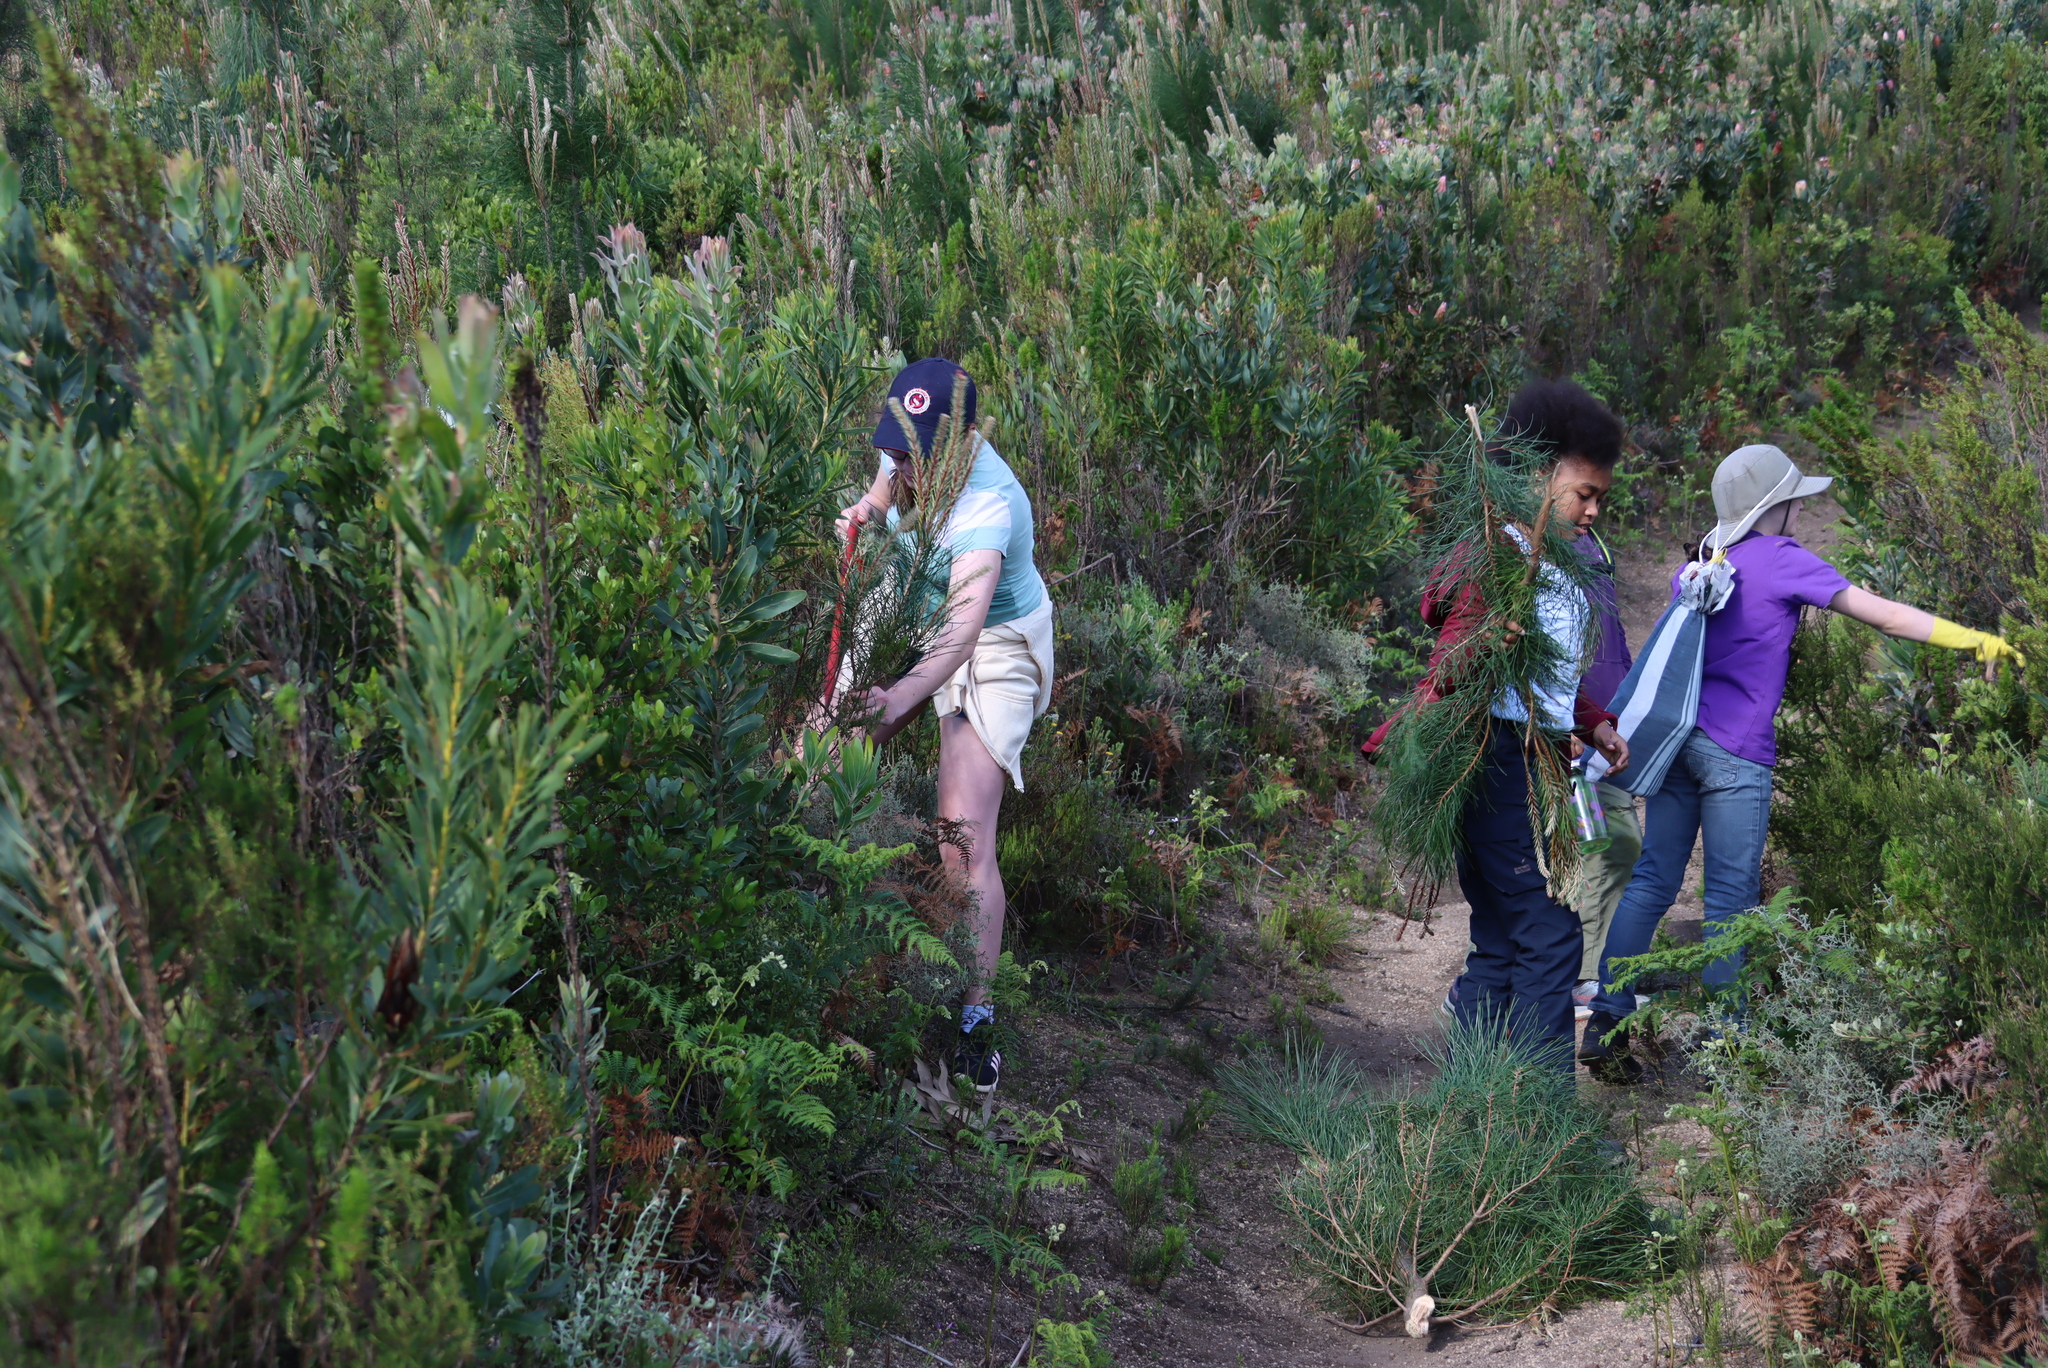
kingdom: Plantae
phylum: Tracheophyta
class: Pinopsida
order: Pinales
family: Pinaceae
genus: Pinus
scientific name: Pinus pinaster
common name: Maritime pine
